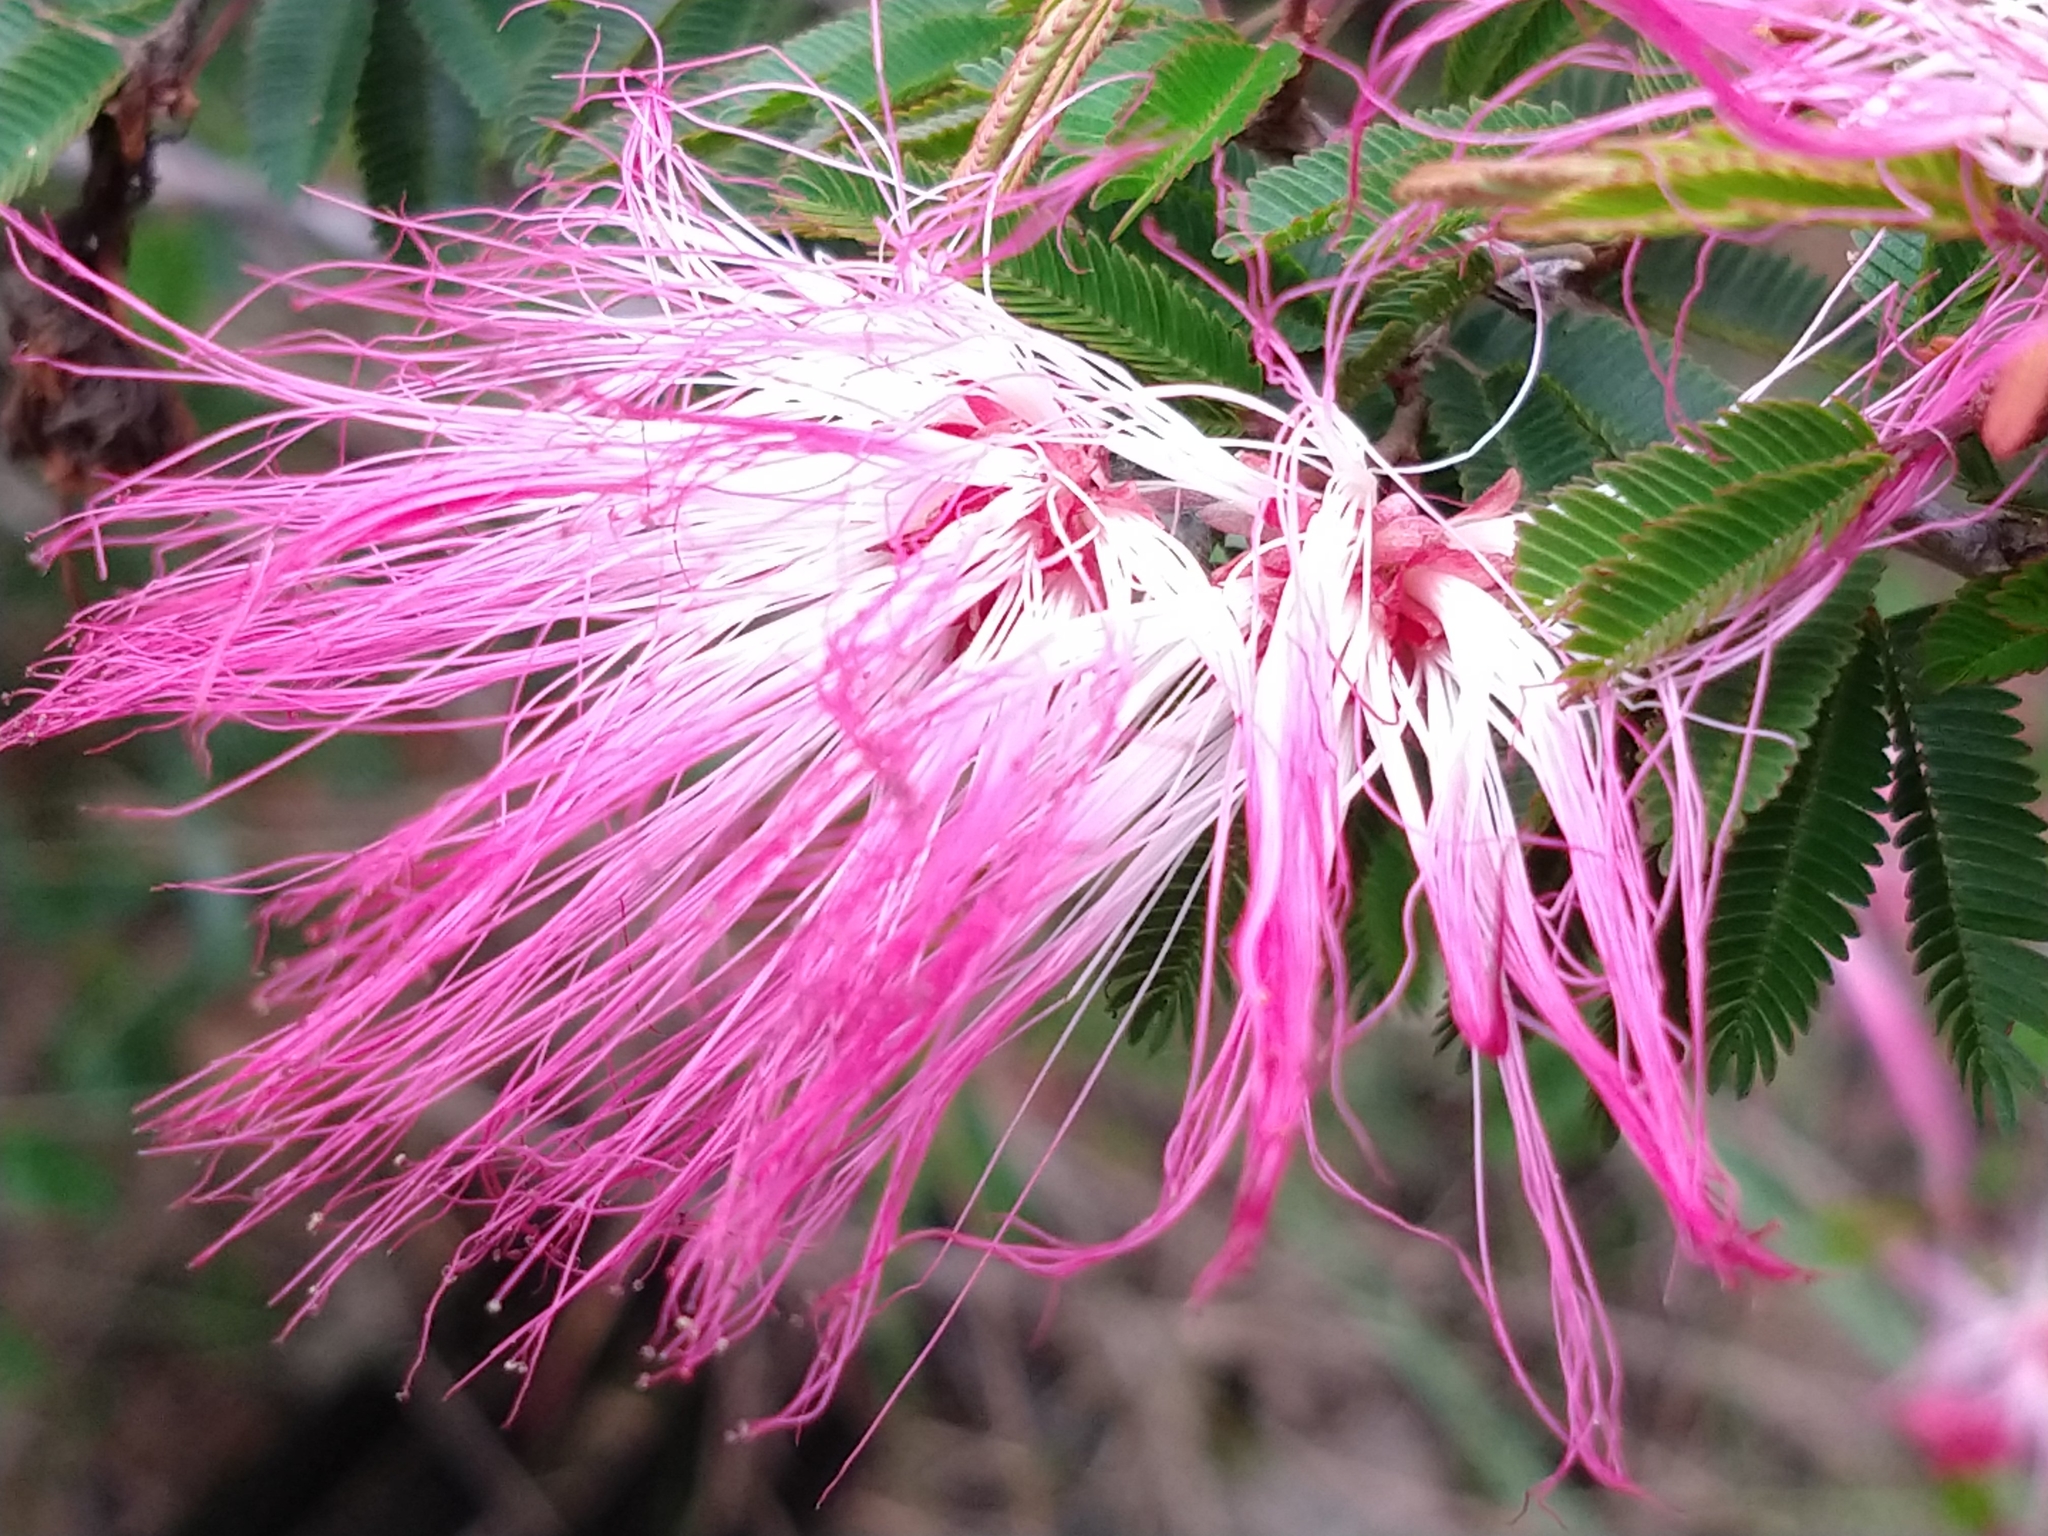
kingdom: Plantae
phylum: Tracheophyta
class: Magnoliopsida
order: Fabales
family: Fabaceae
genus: Calliandra
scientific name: Calliandra selloi
